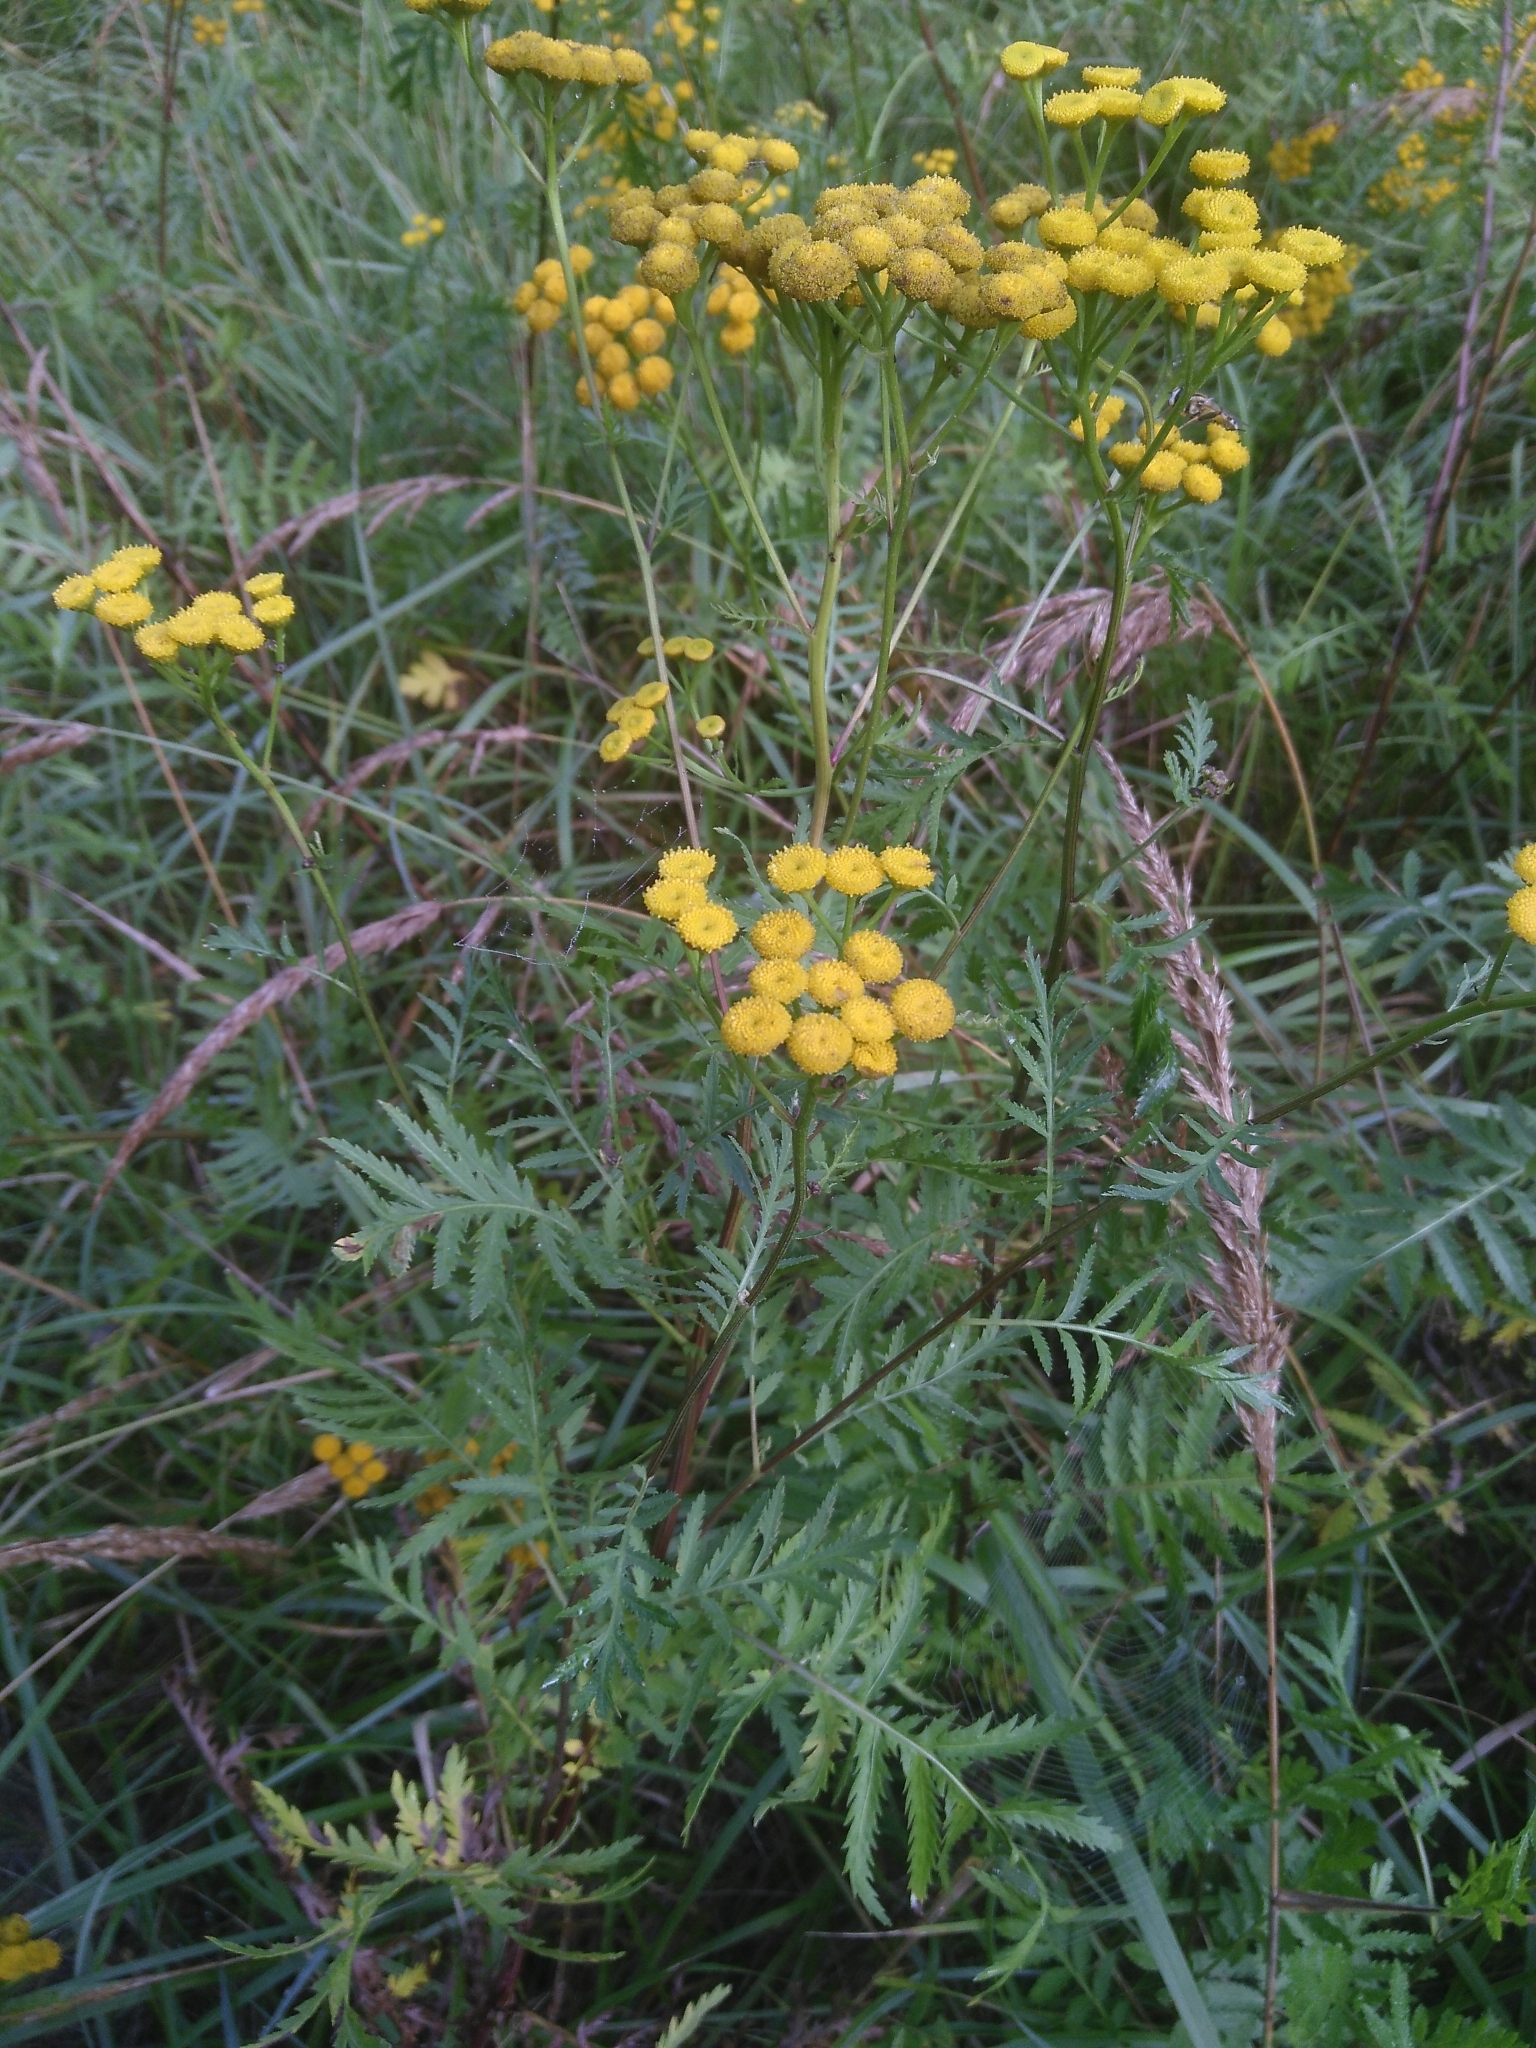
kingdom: Plantae
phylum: Tracheophyta
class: Magnoliopsida
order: Asterales
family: Asteraceae
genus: Tanacetum
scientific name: Tanacetum vulgare
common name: Common tansy
